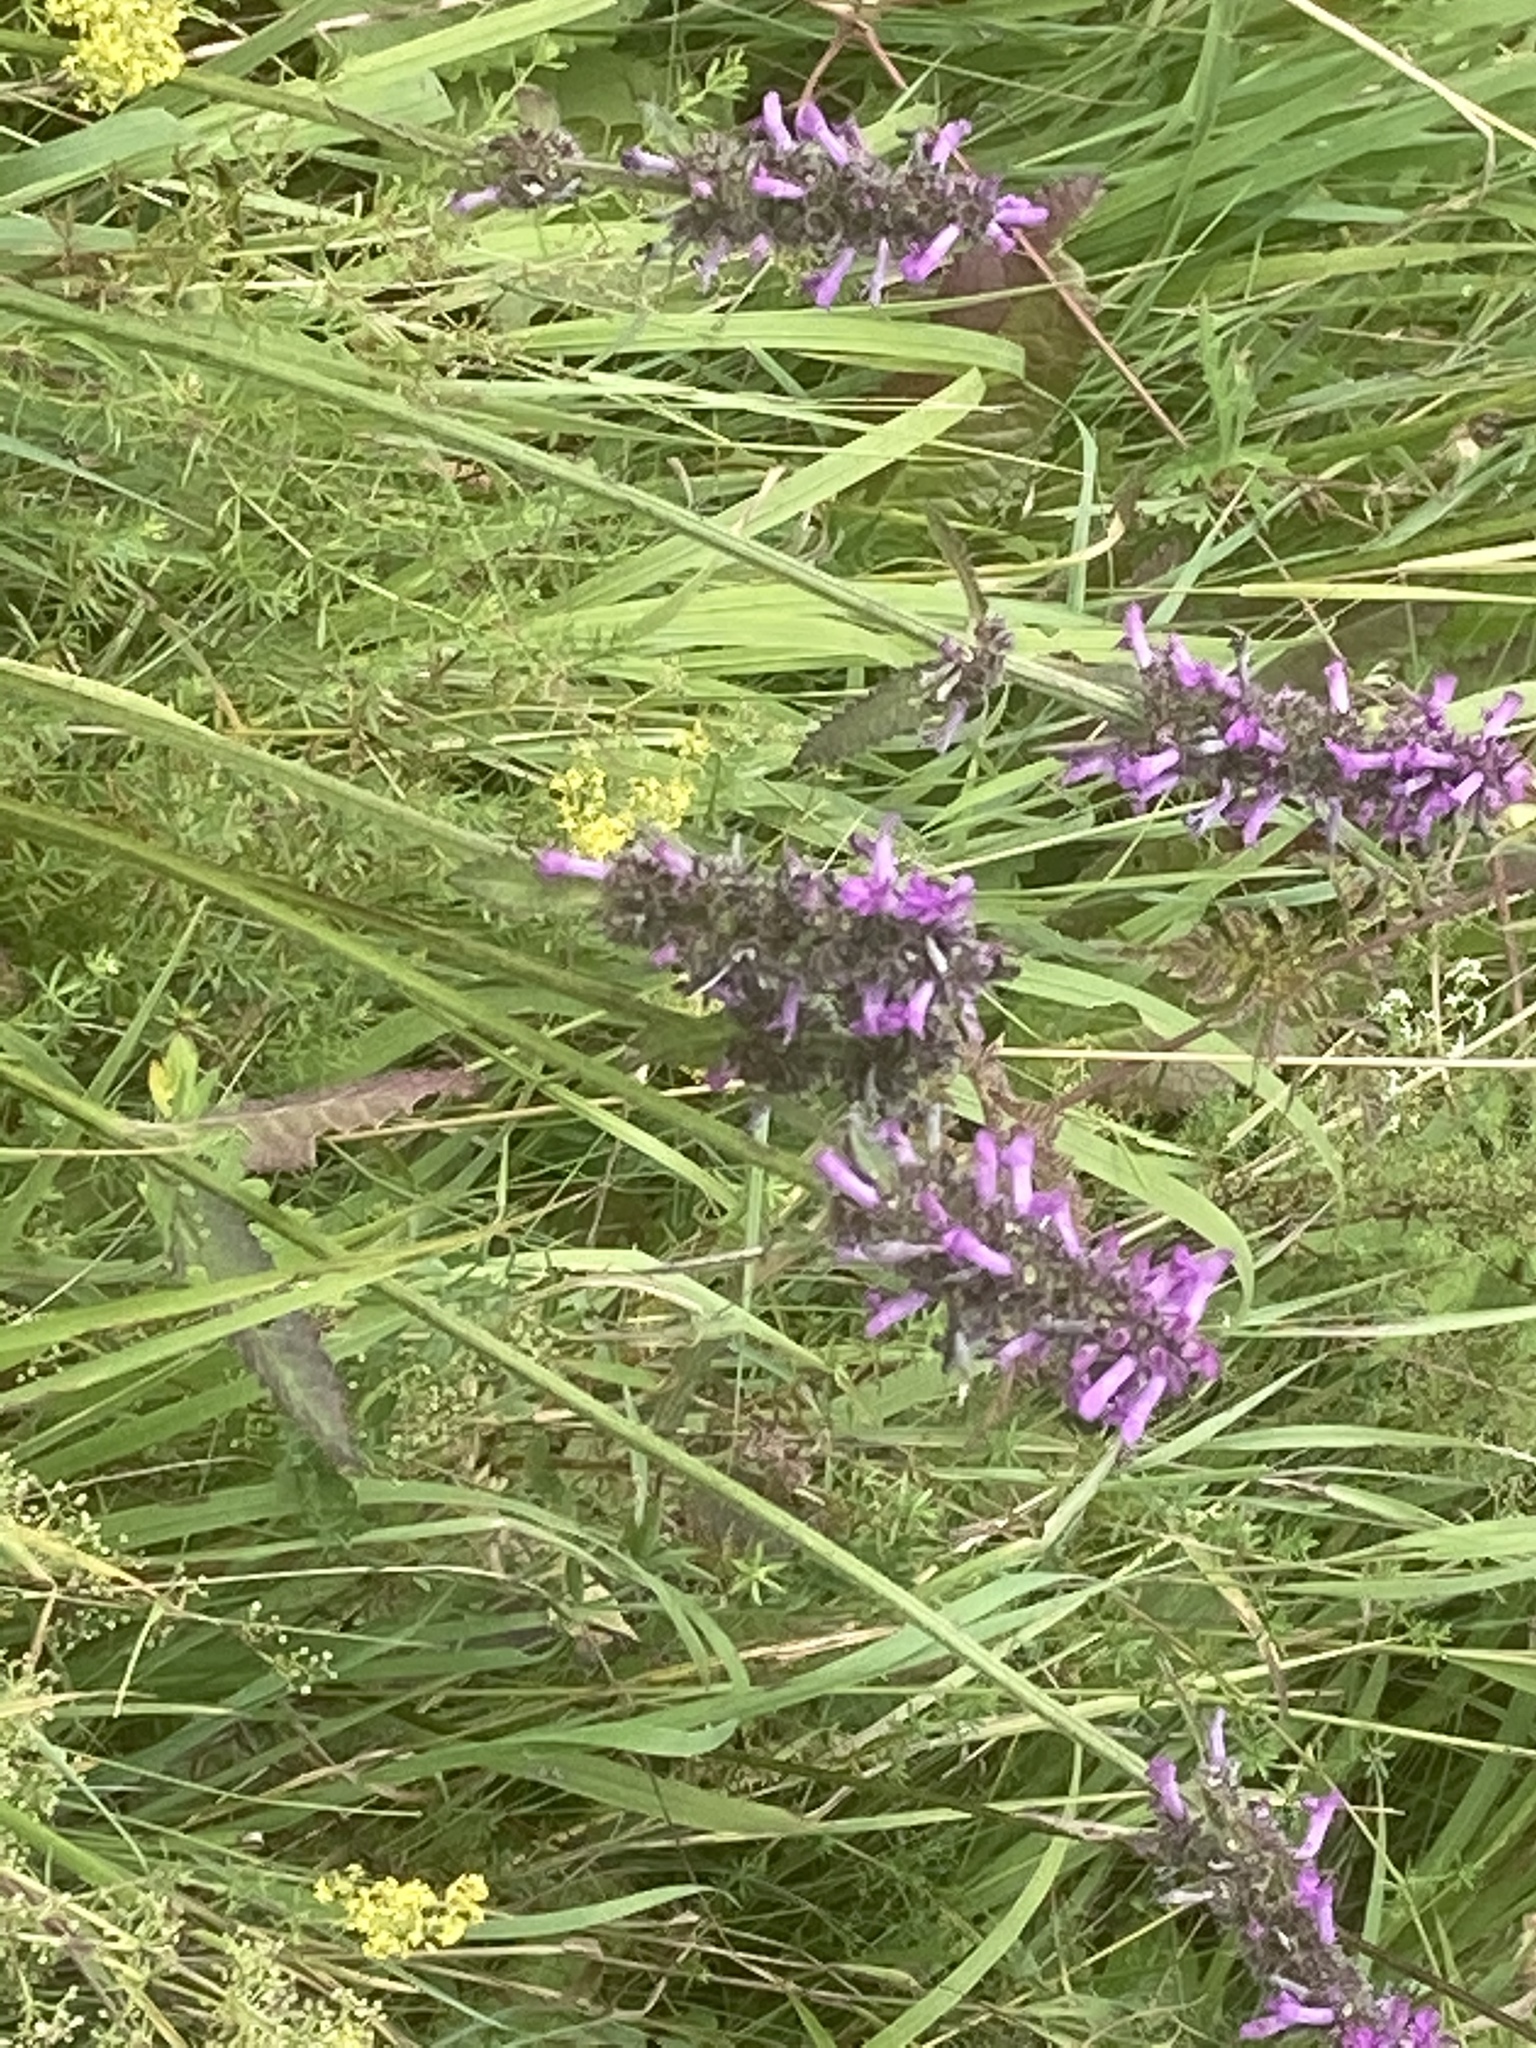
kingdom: Plantae
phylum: Tracheophyta
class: Magnoliopsida
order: Lamiales
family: Lamiaceae
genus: Betonica
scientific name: Betonica officinalis
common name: Bishop's-wort
